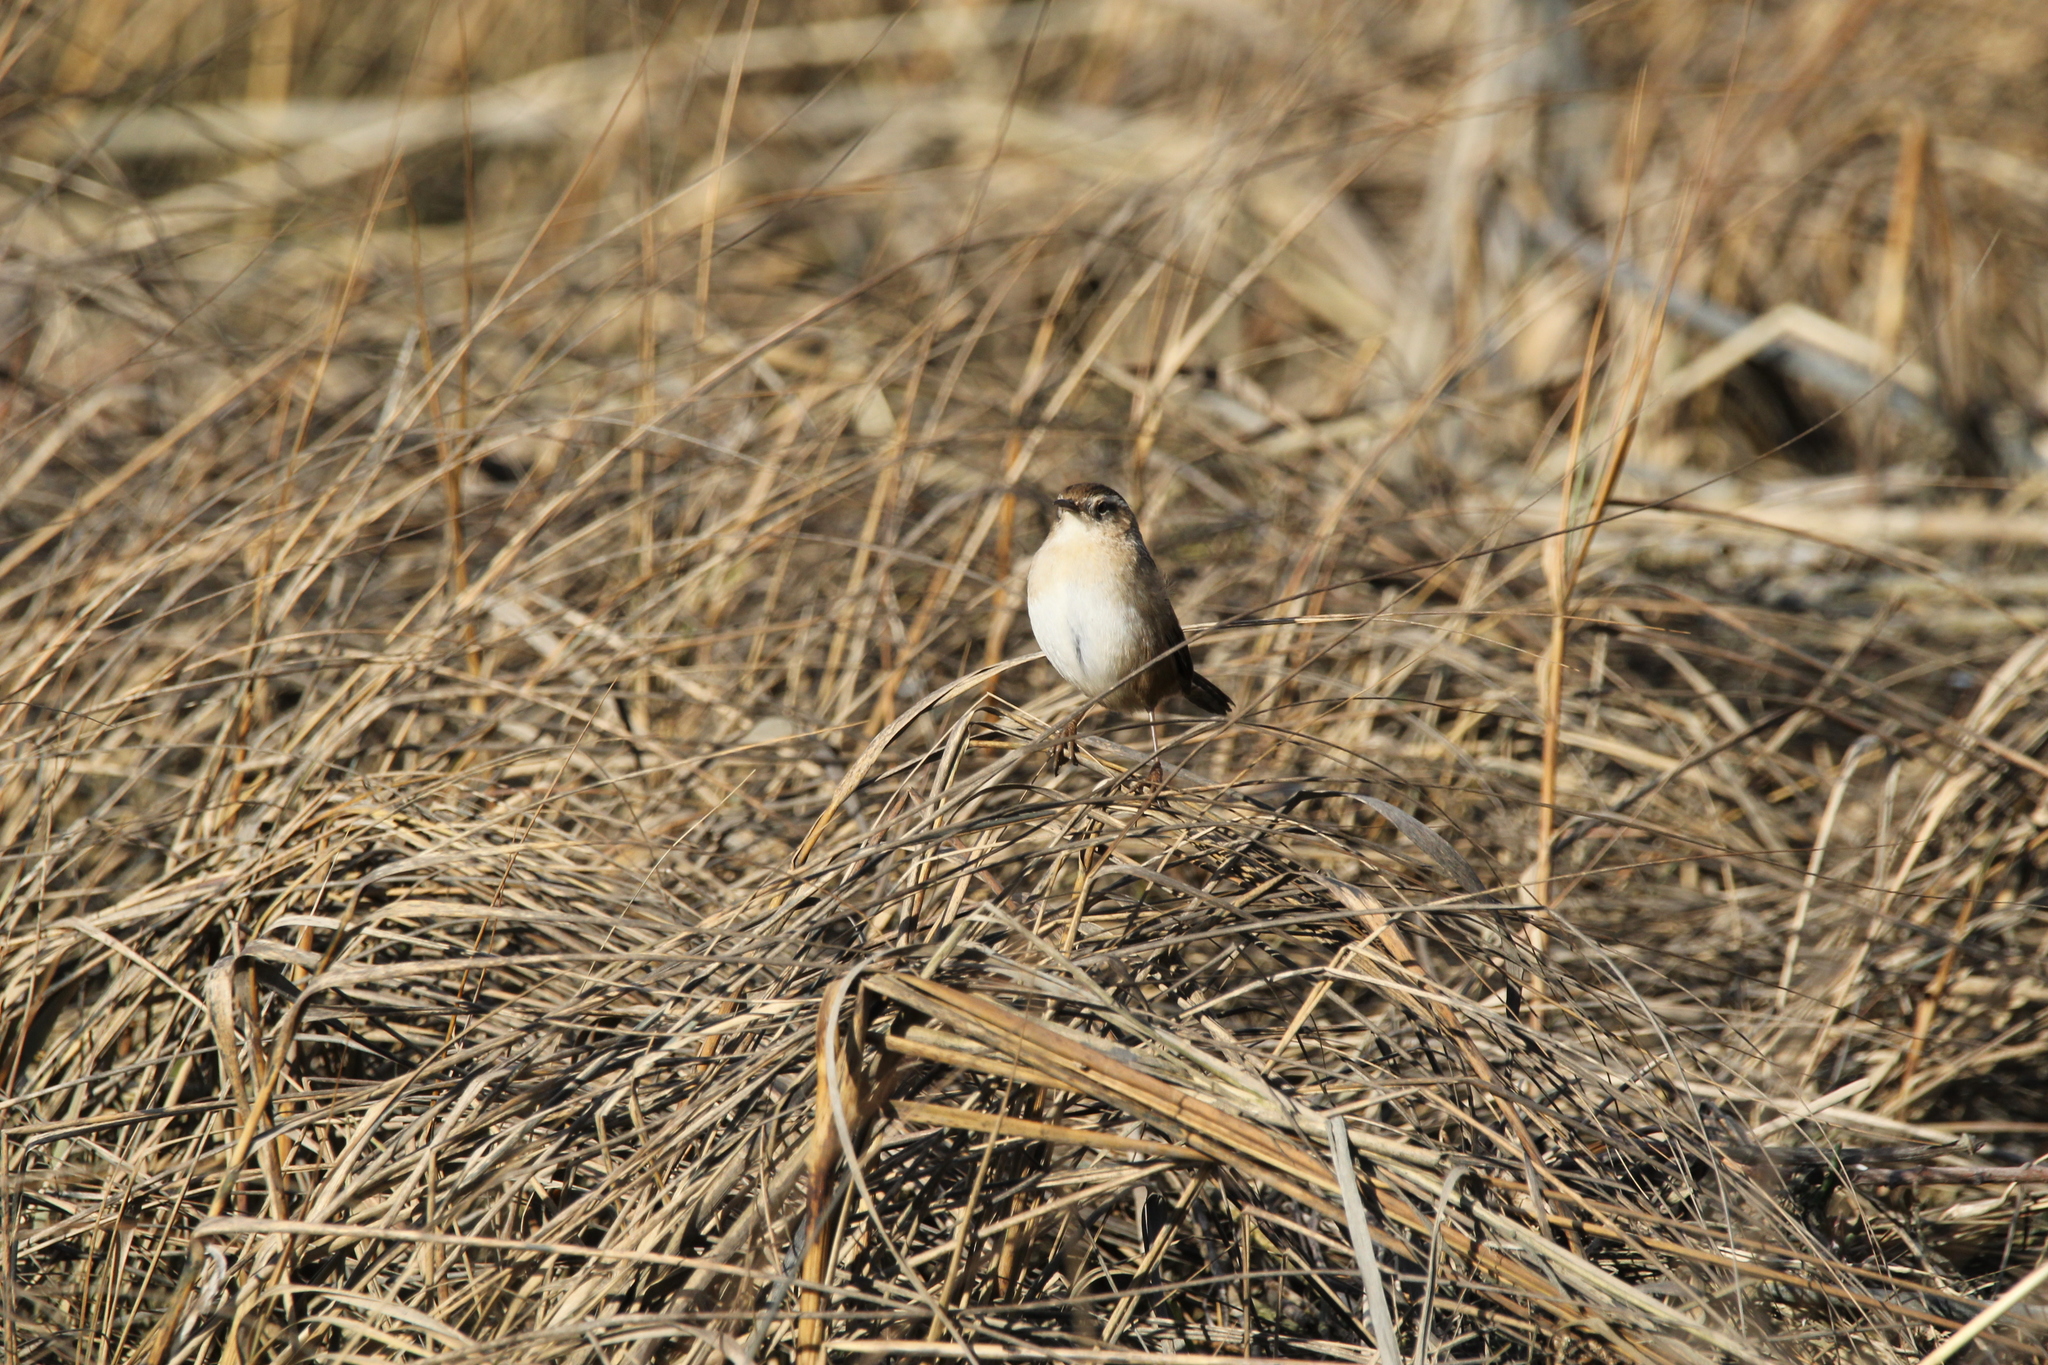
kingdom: Animalia
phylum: Chordata
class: Aves
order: Passeriformes
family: Troglodytidae
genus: Cistothorus
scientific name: Cistothorus palustris
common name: Marsh wren
